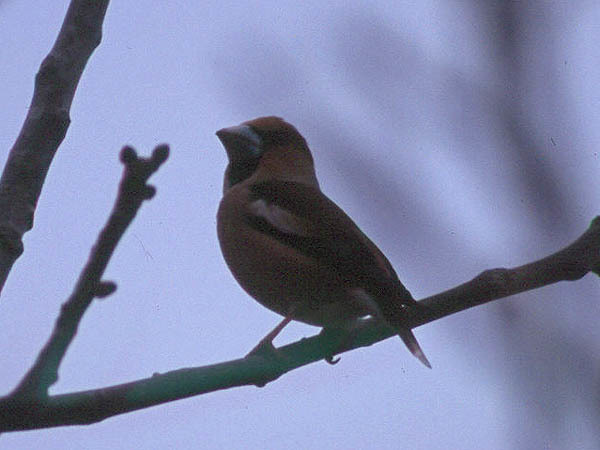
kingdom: Animalia
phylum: Chordata
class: Aves
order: Passeriformes
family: Fringillidae
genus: Coccothraustes
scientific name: Coccothraustes coccothraustes
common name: Hawfinch
